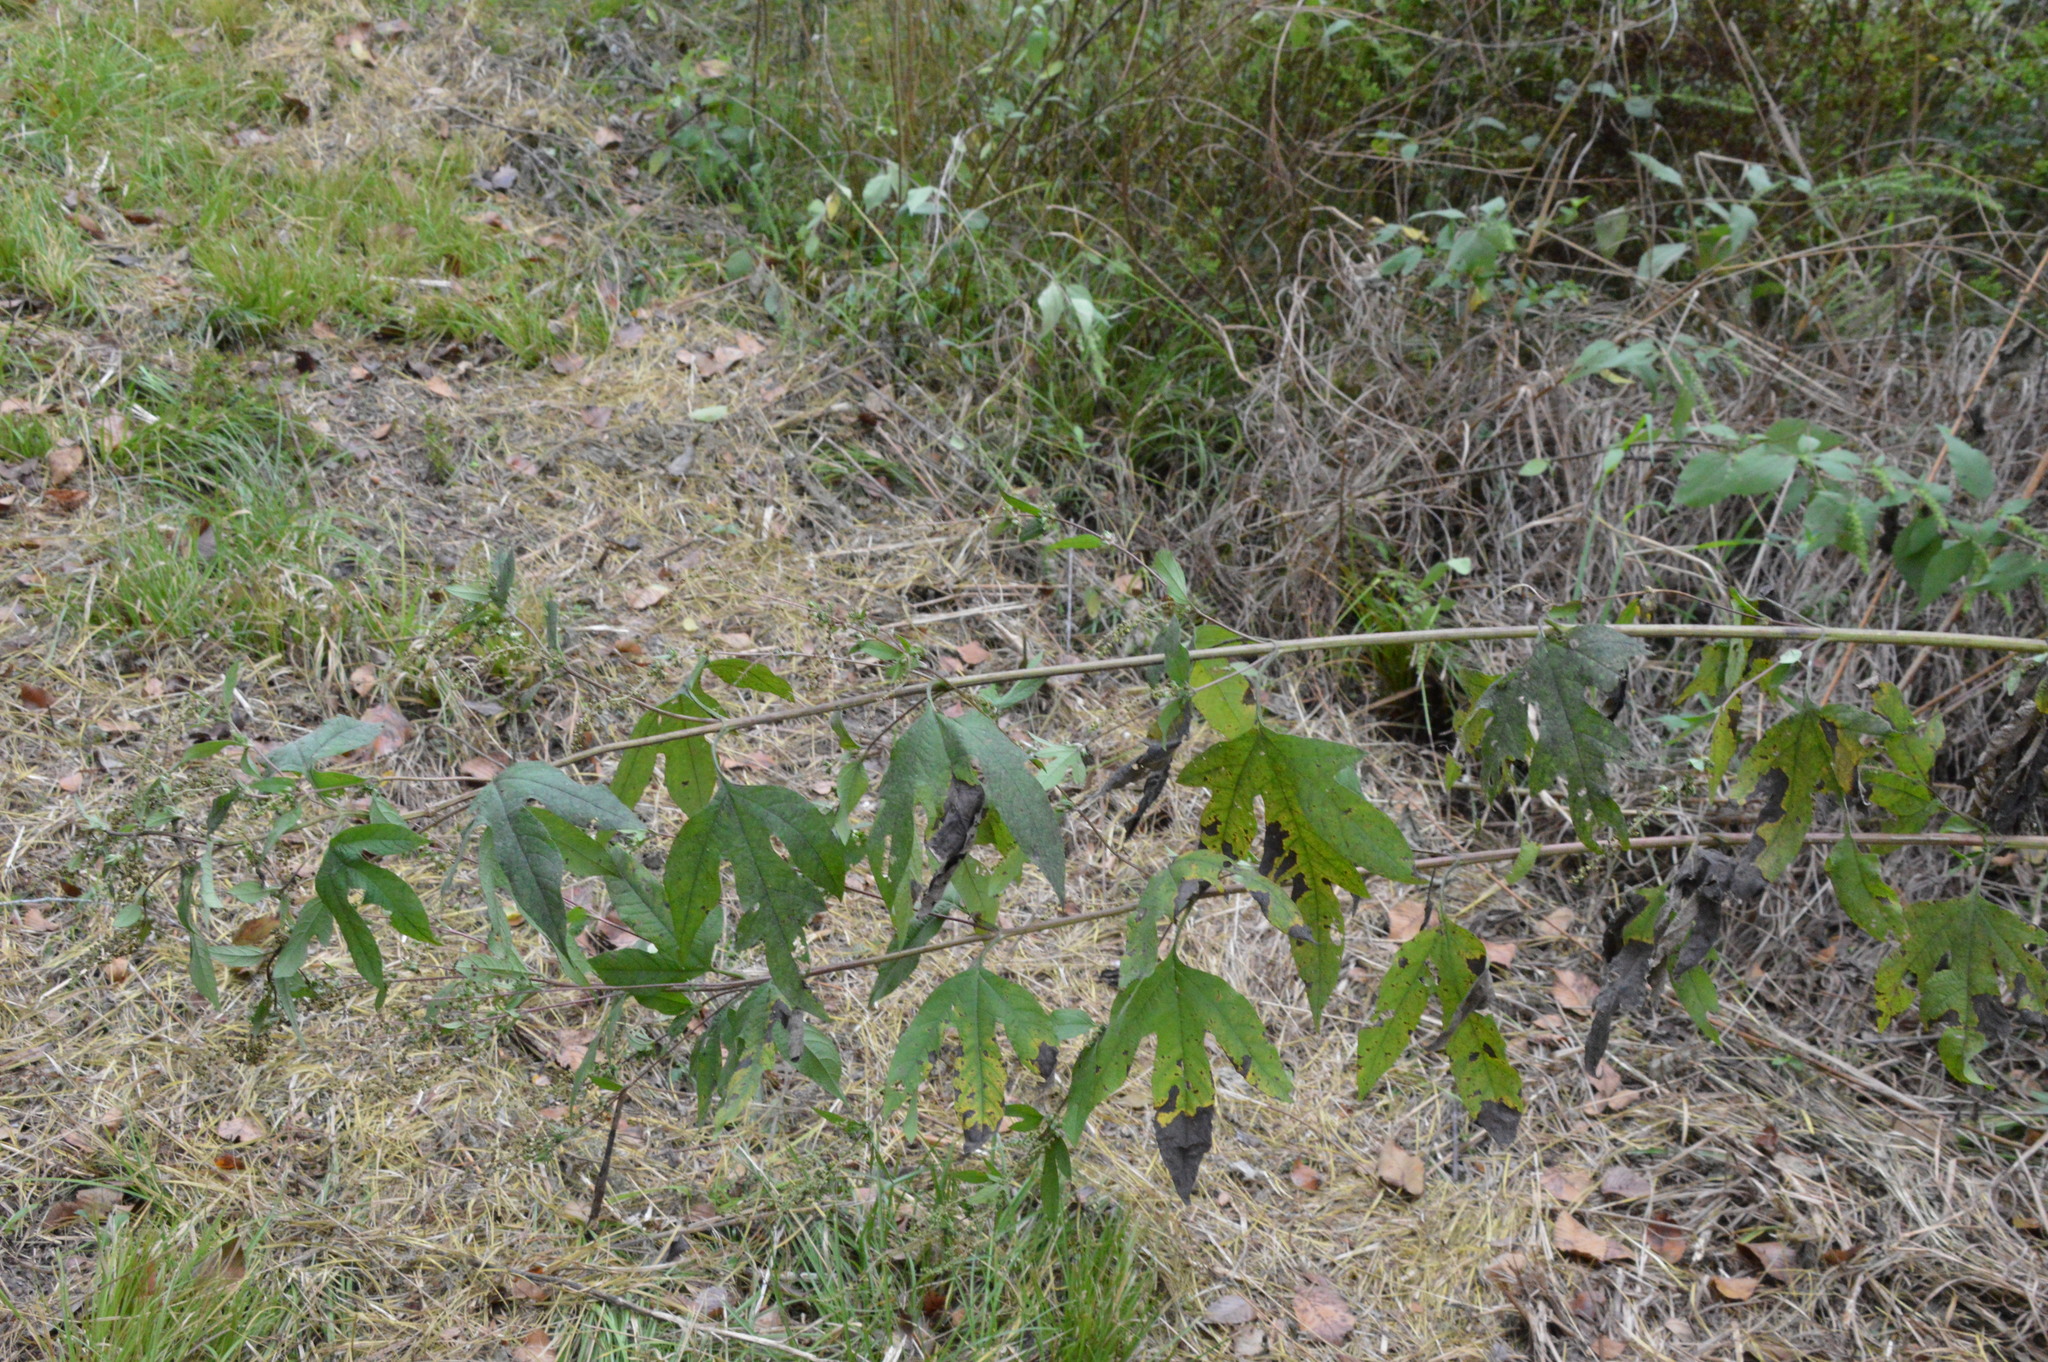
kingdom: Plantae
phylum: Tracheophyta
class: Magnoliopsida
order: Asterales
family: Asteraceae
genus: Ambrosia
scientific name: Ambrosia trifida
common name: Giant ragweed
